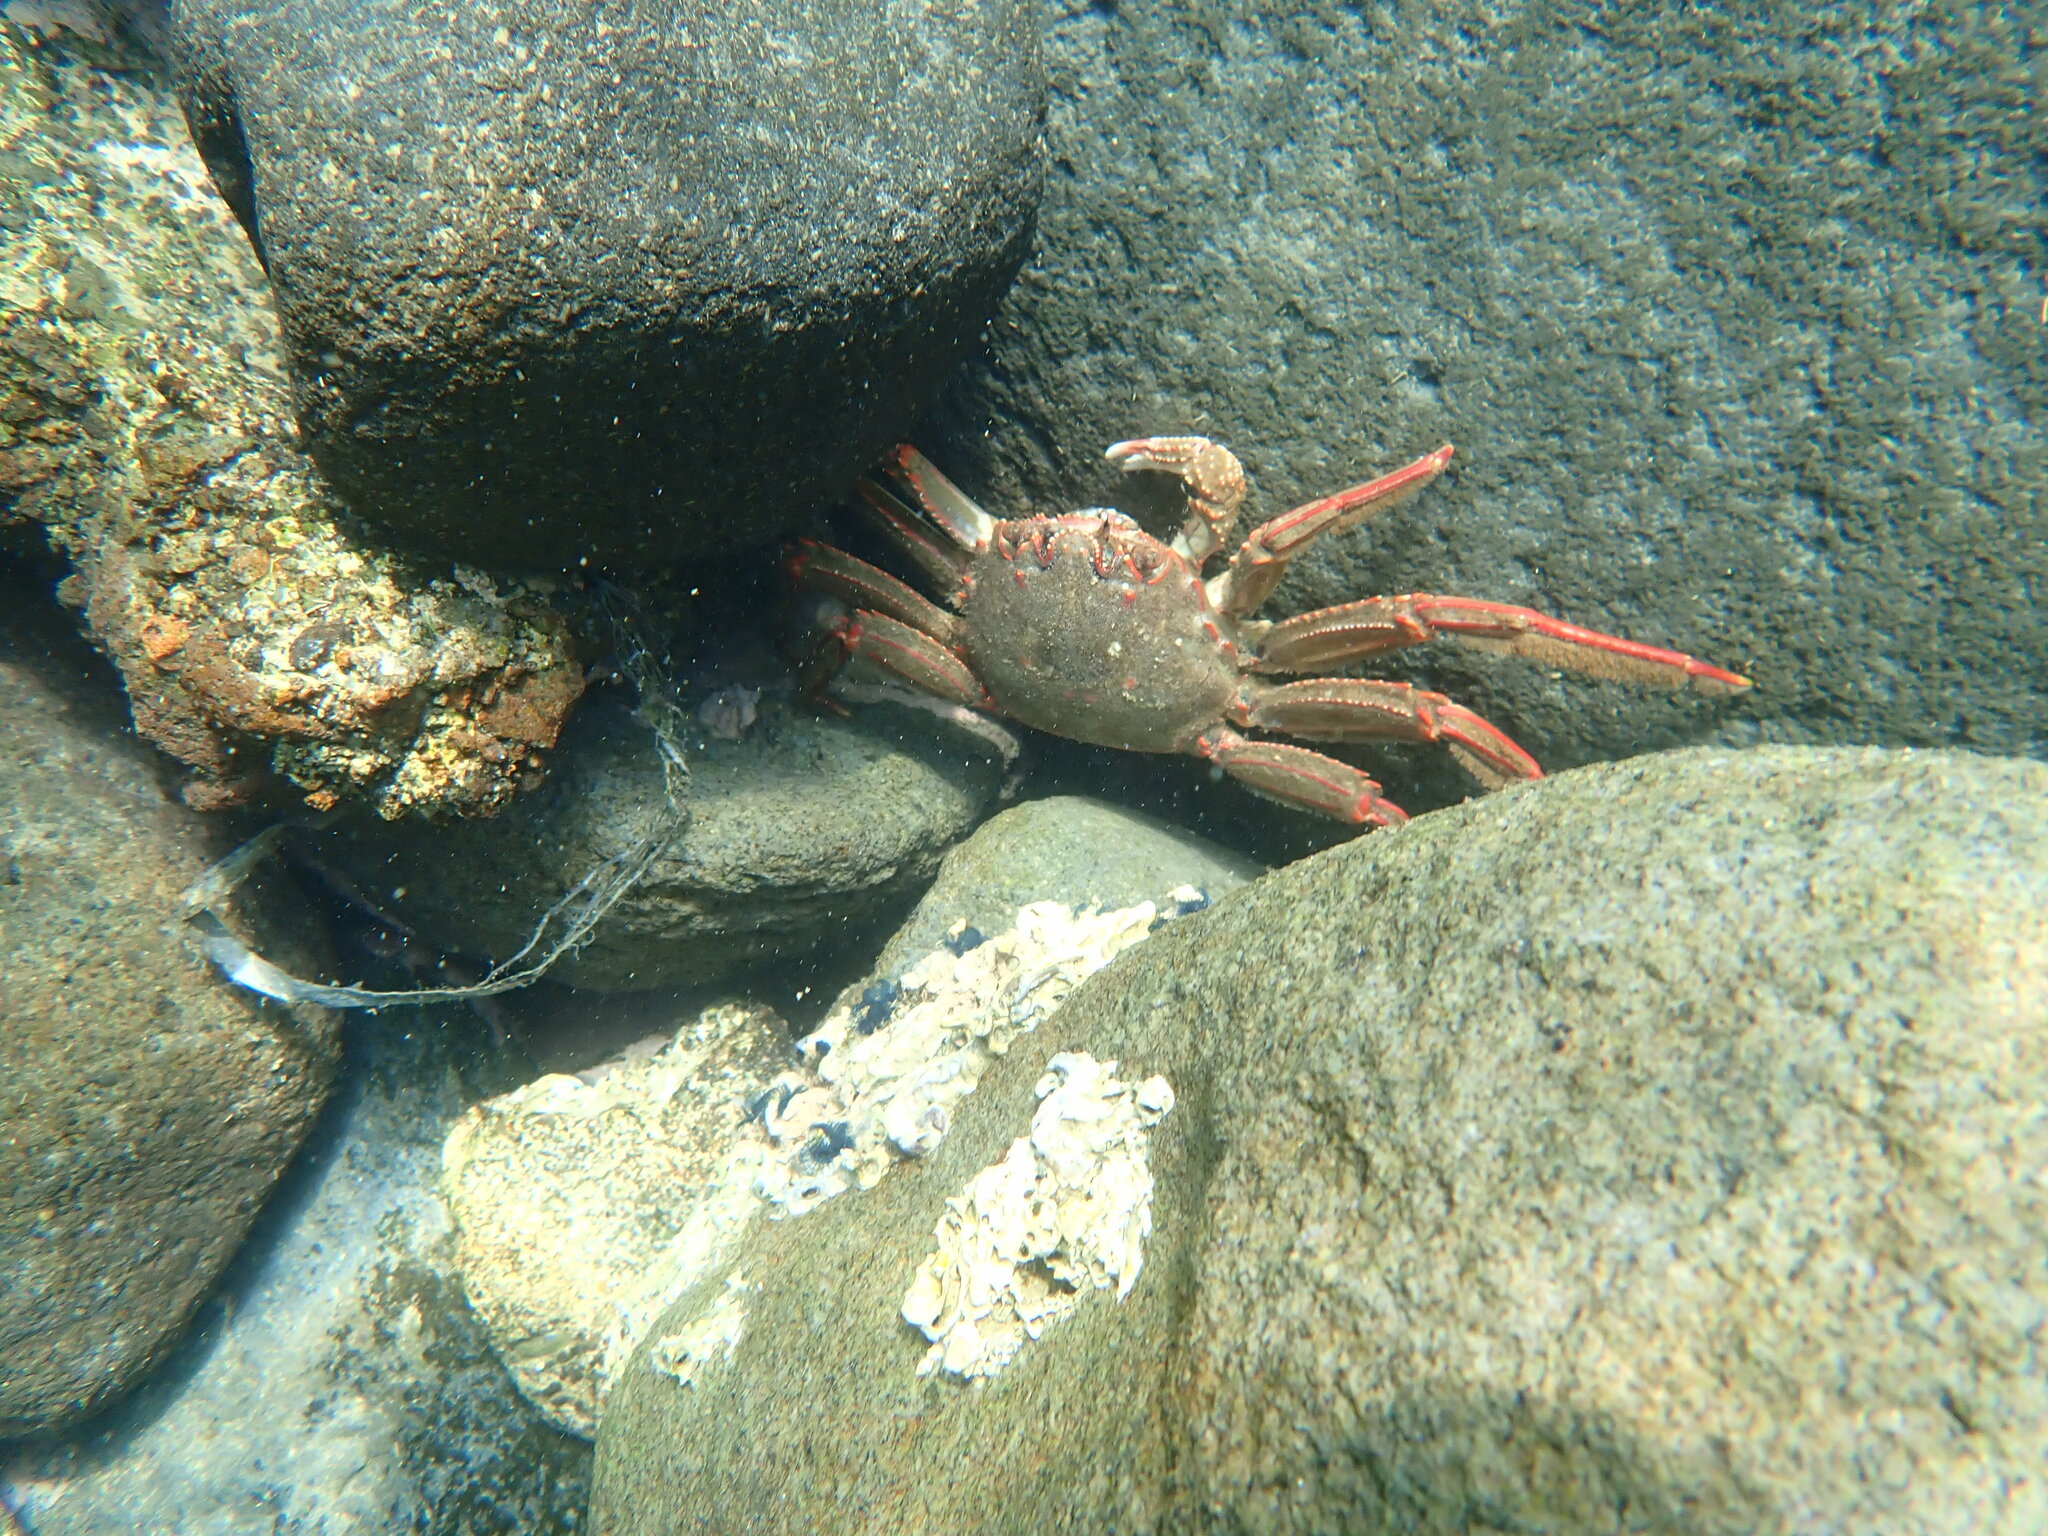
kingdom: Animalia
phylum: Arthropoda
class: Malacostraca
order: Decapoda
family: Plagusiidae
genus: Guinusia
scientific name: Guinusia chabrus
